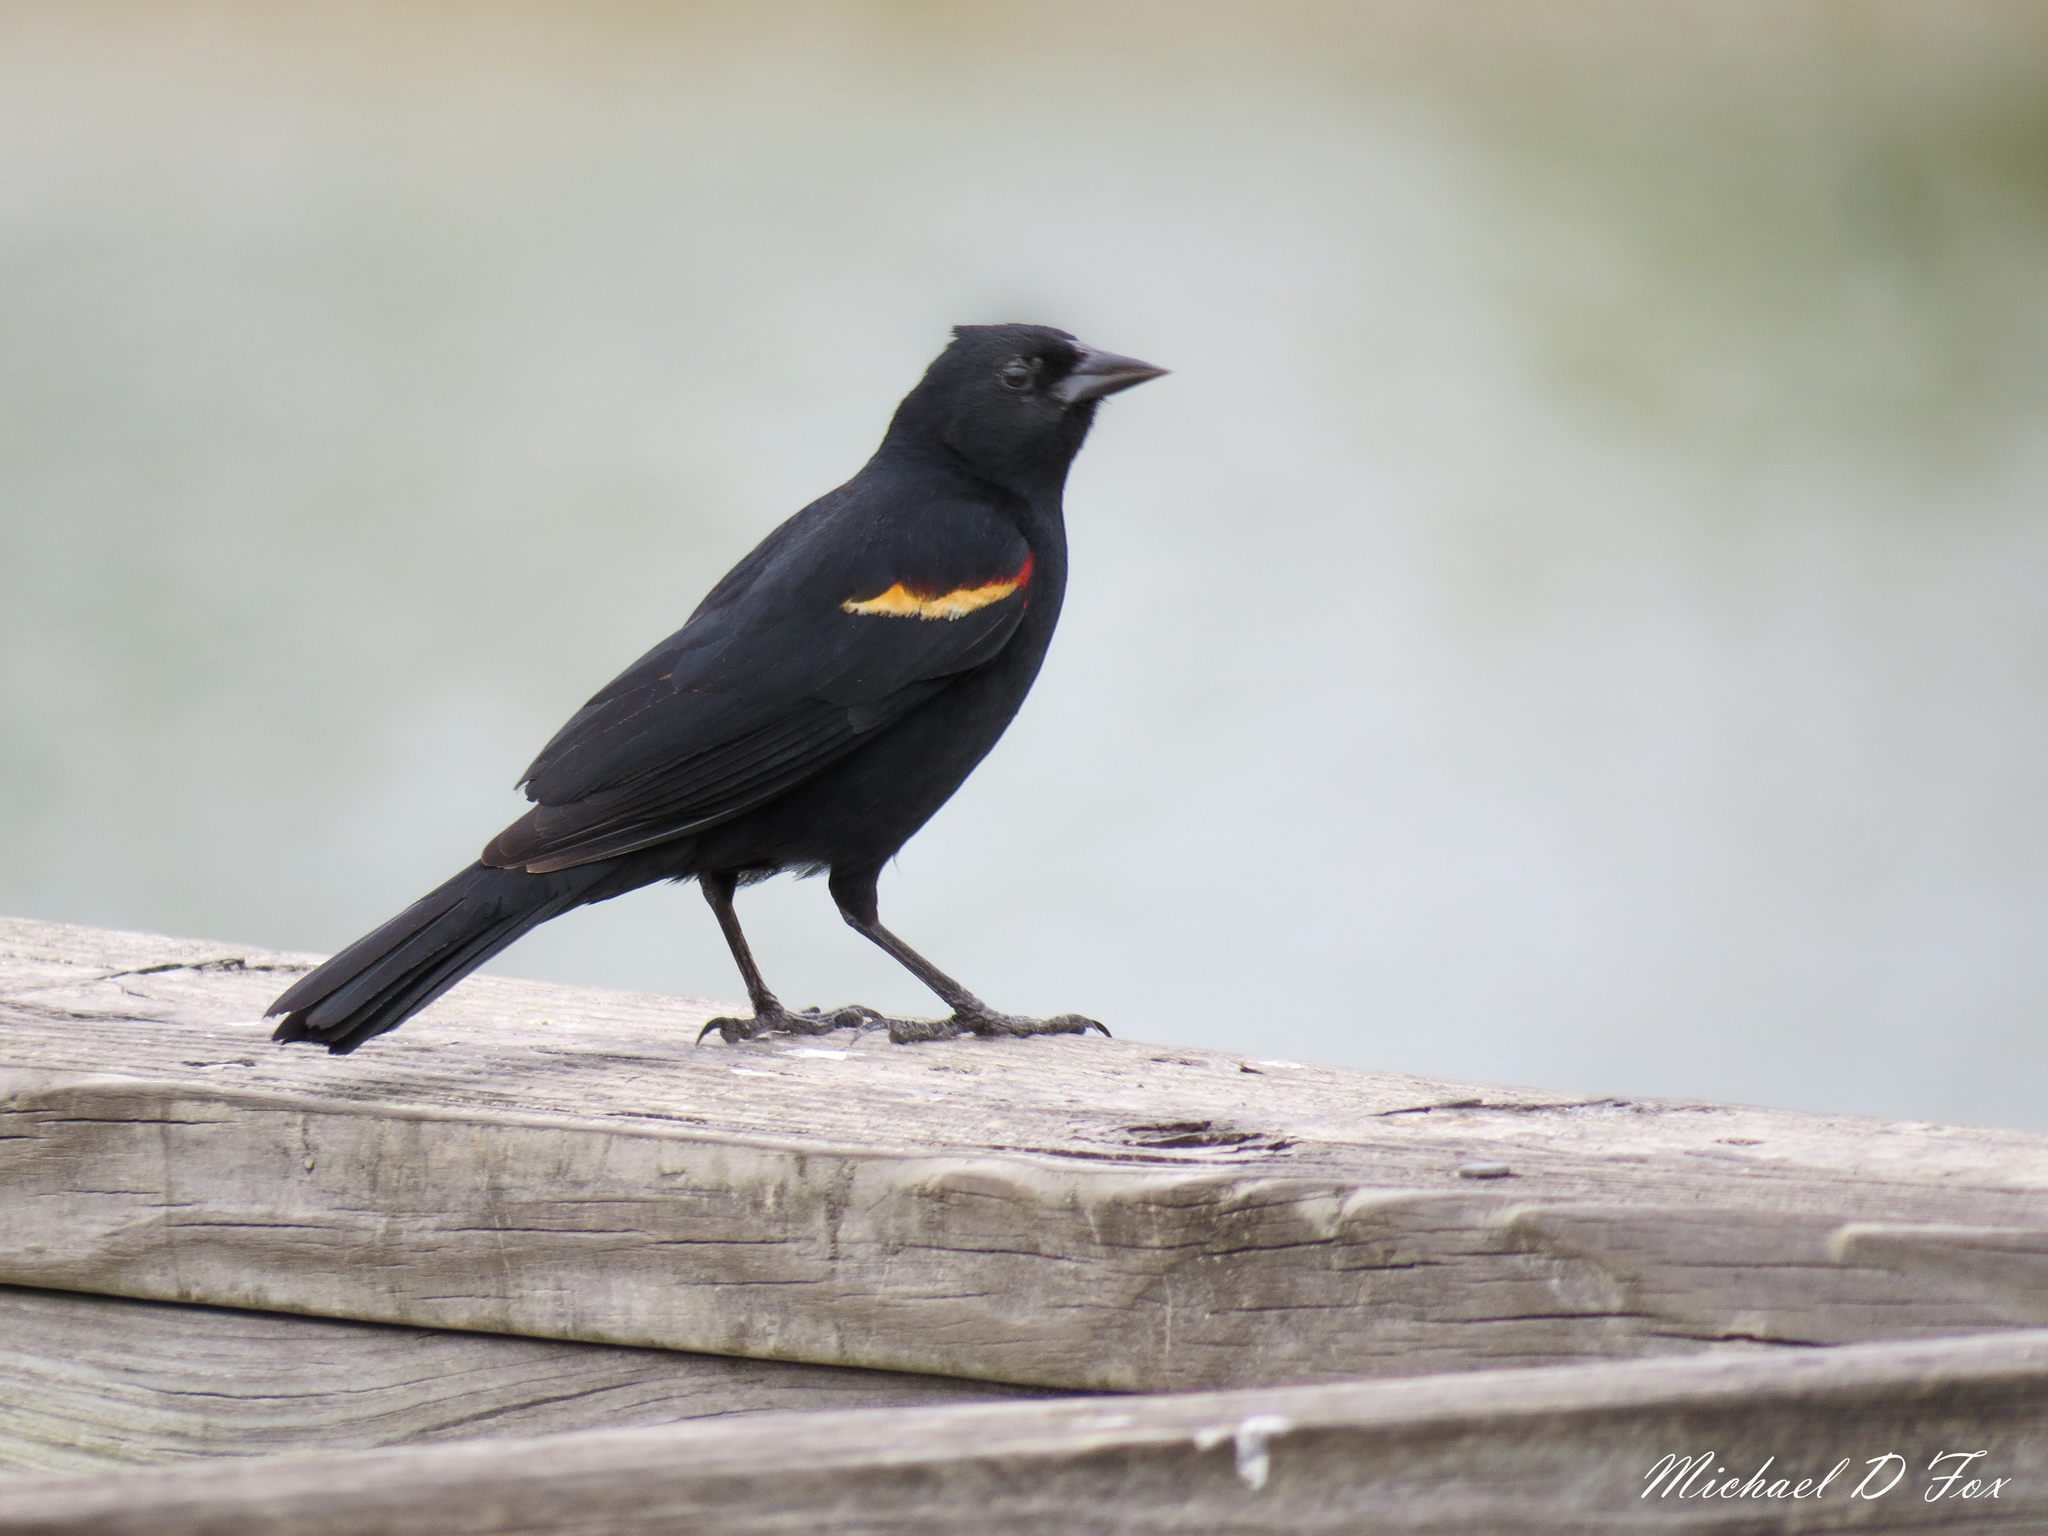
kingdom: Animalia
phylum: Chordata
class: Aves
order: Passeriformes
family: Icteridae
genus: Agelaius
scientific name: Agelaius phoeniceus
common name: Red-winged blackbird
